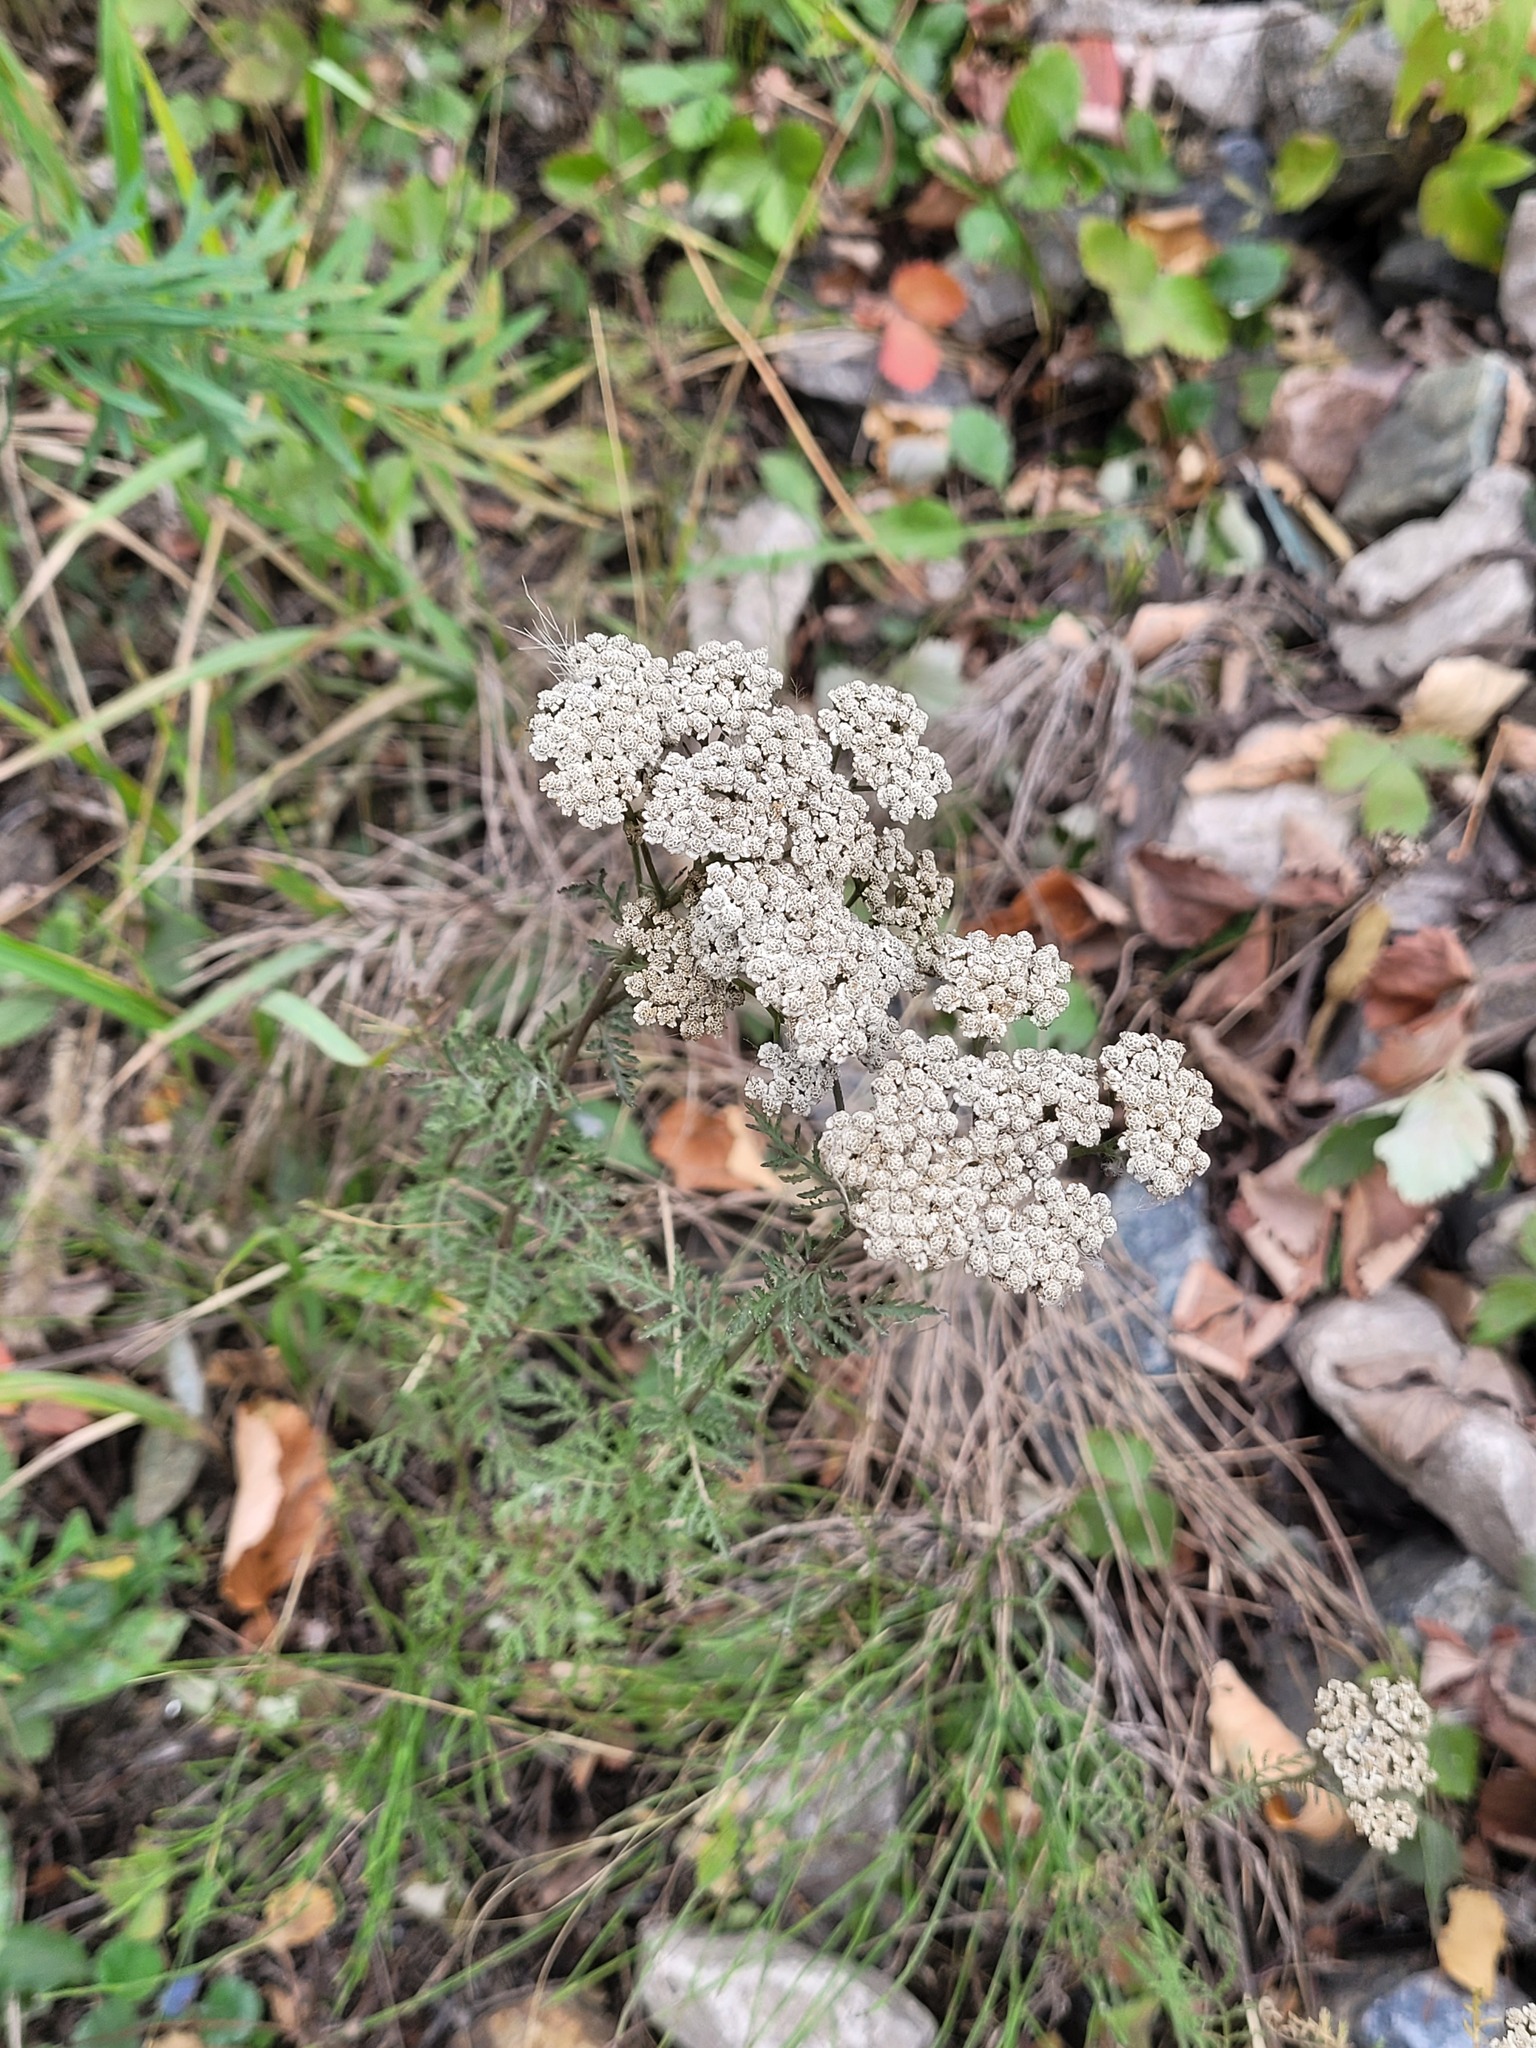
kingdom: Plantae
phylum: Tracheophyta
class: Magnoliopsida
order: Asterales
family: Asteraceae
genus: Achillea
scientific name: Achillea nobilis
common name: Noble yarrow
